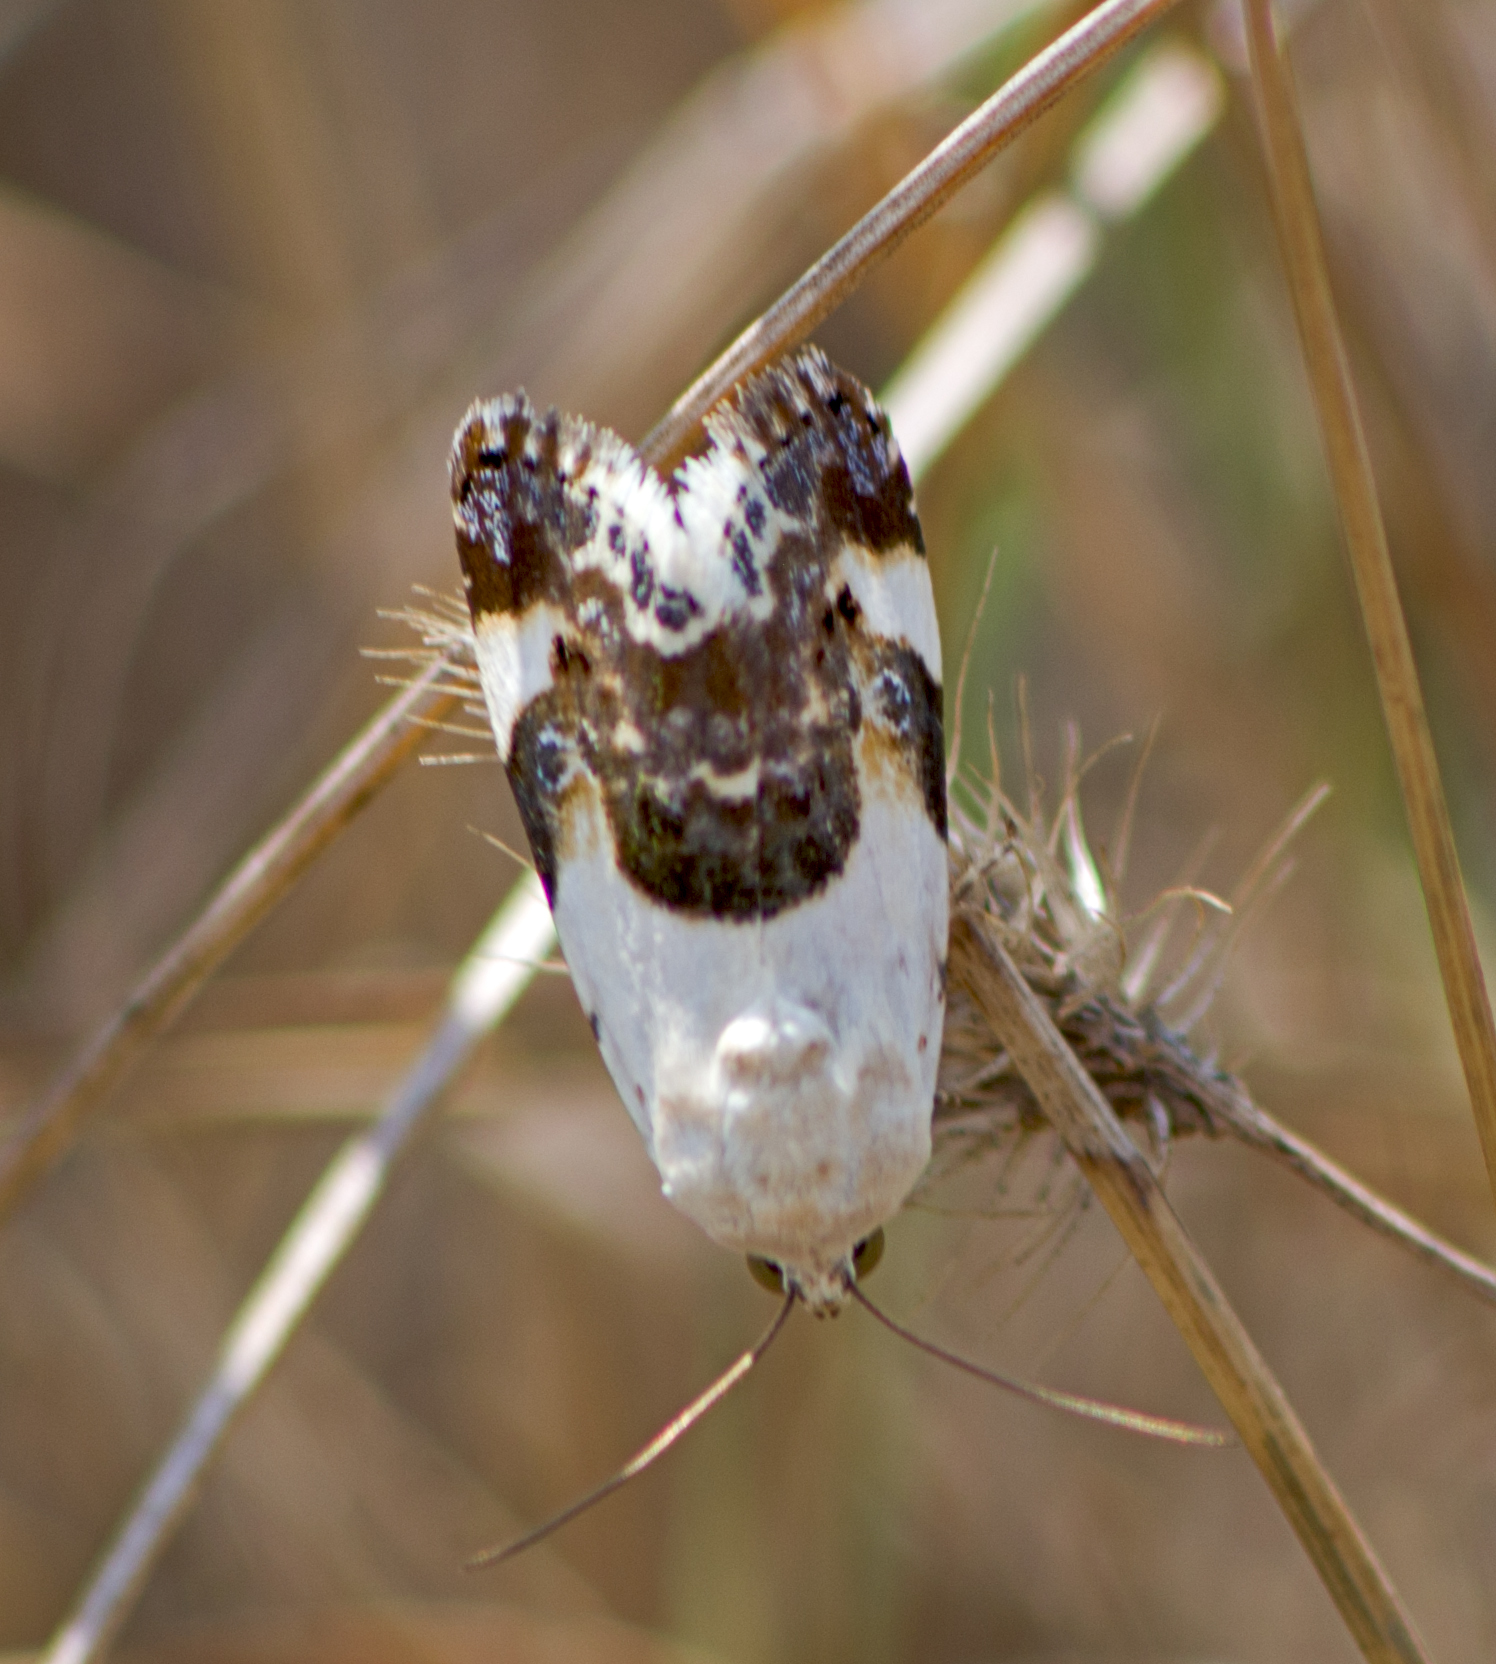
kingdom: Animalia
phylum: Arthropoda
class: Insecta
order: Lepidoptera
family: Noctuidae
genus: Acontia
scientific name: Acontia lucida
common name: Pale shoulder
